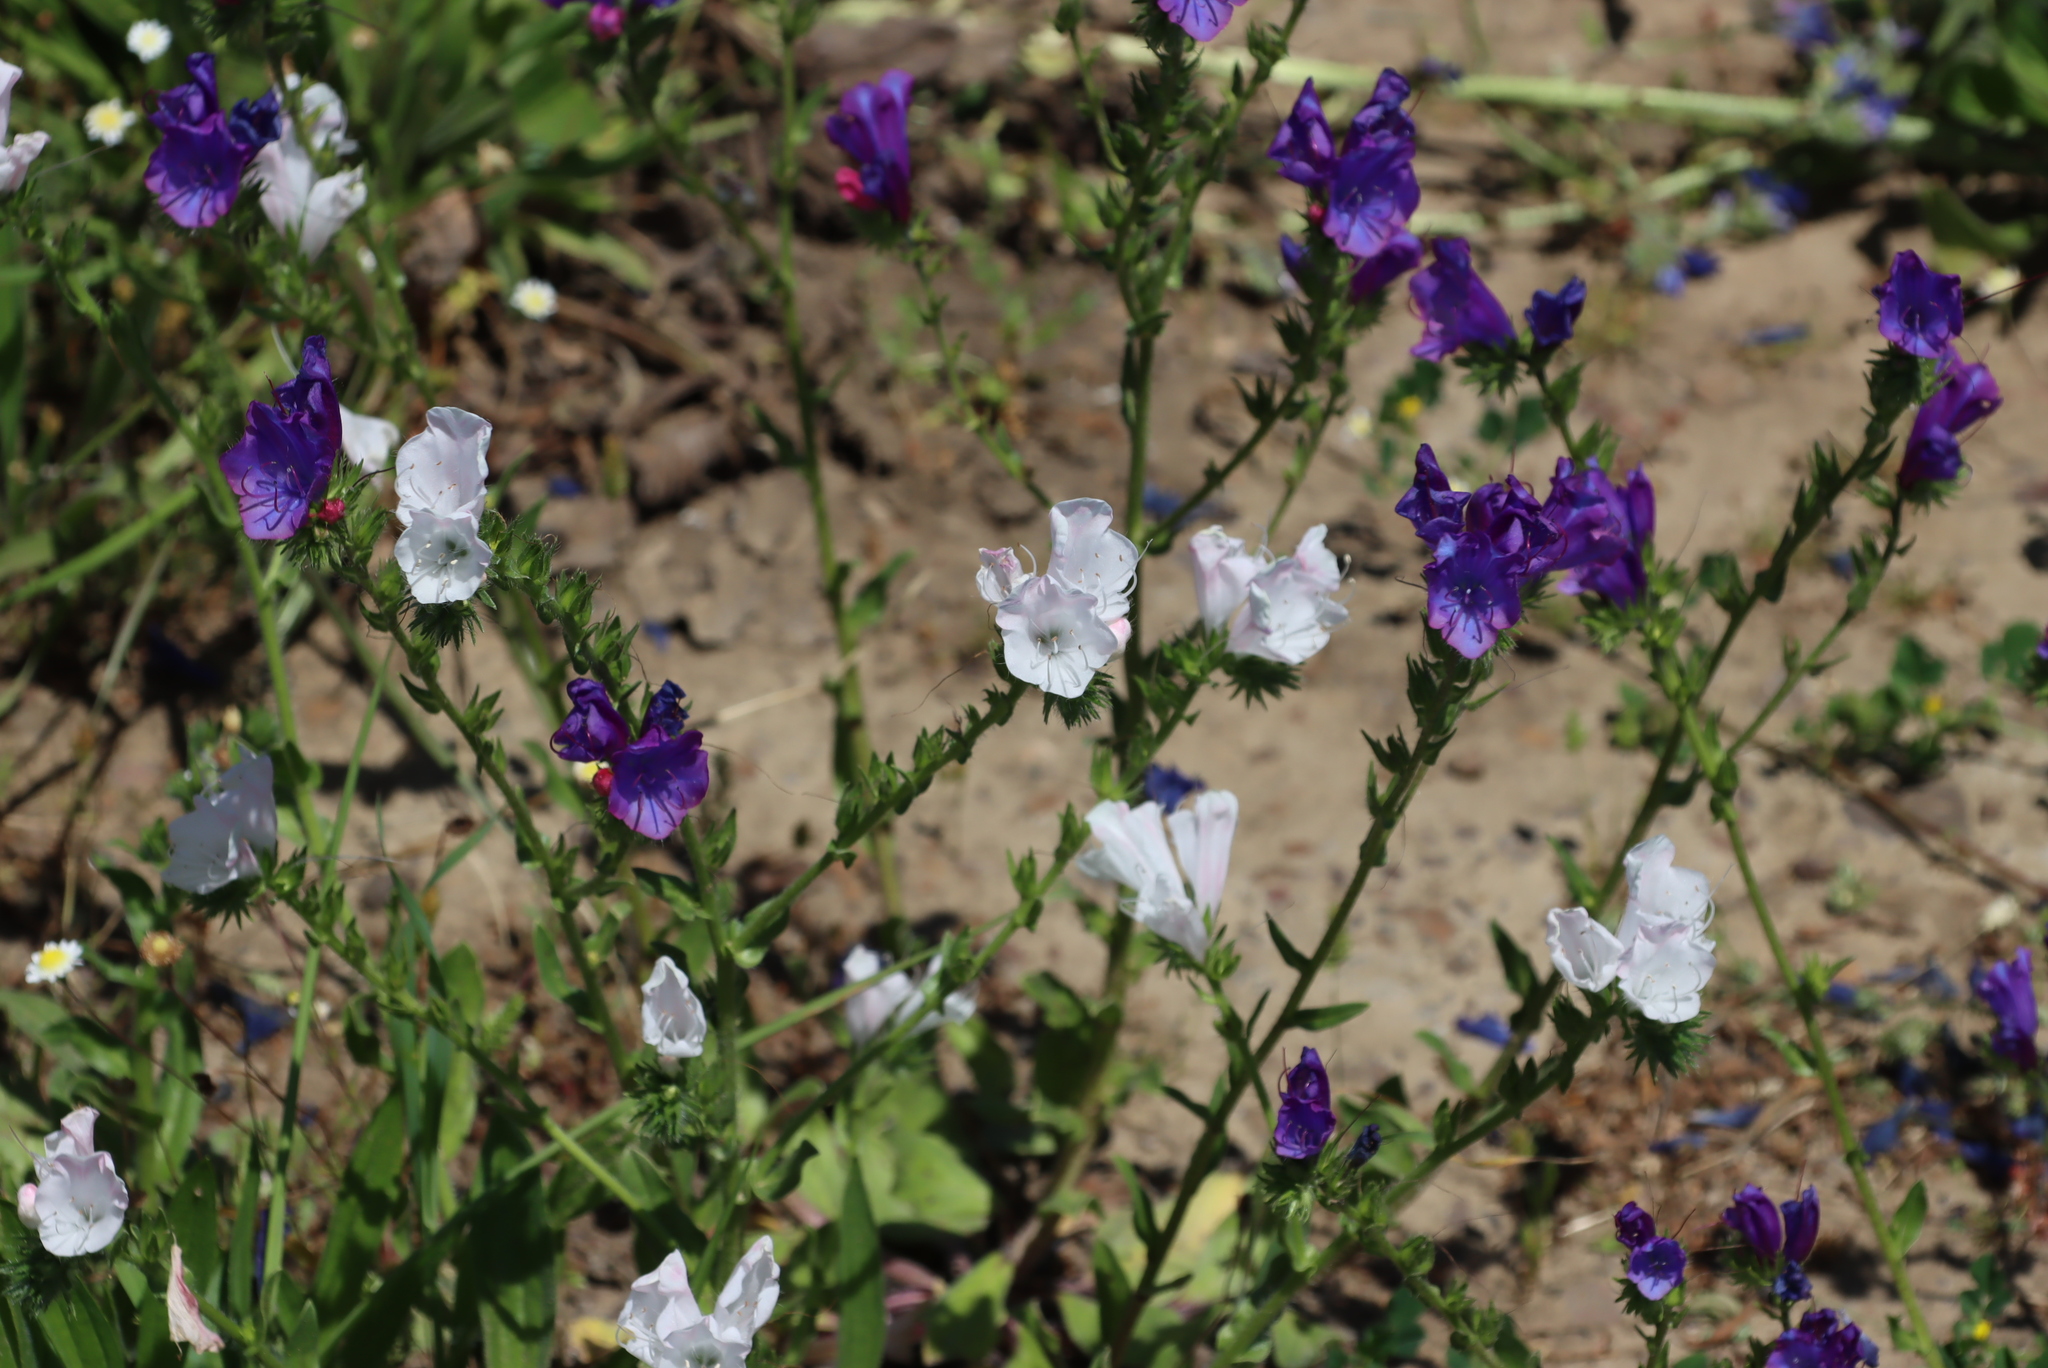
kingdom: Plantae
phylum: Tracheophyta
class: Magnoliopsida
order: Boraginales
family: Boraginaceae
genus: Echium
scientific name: Echium plantagineum
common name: Purple viper's-bugloss
